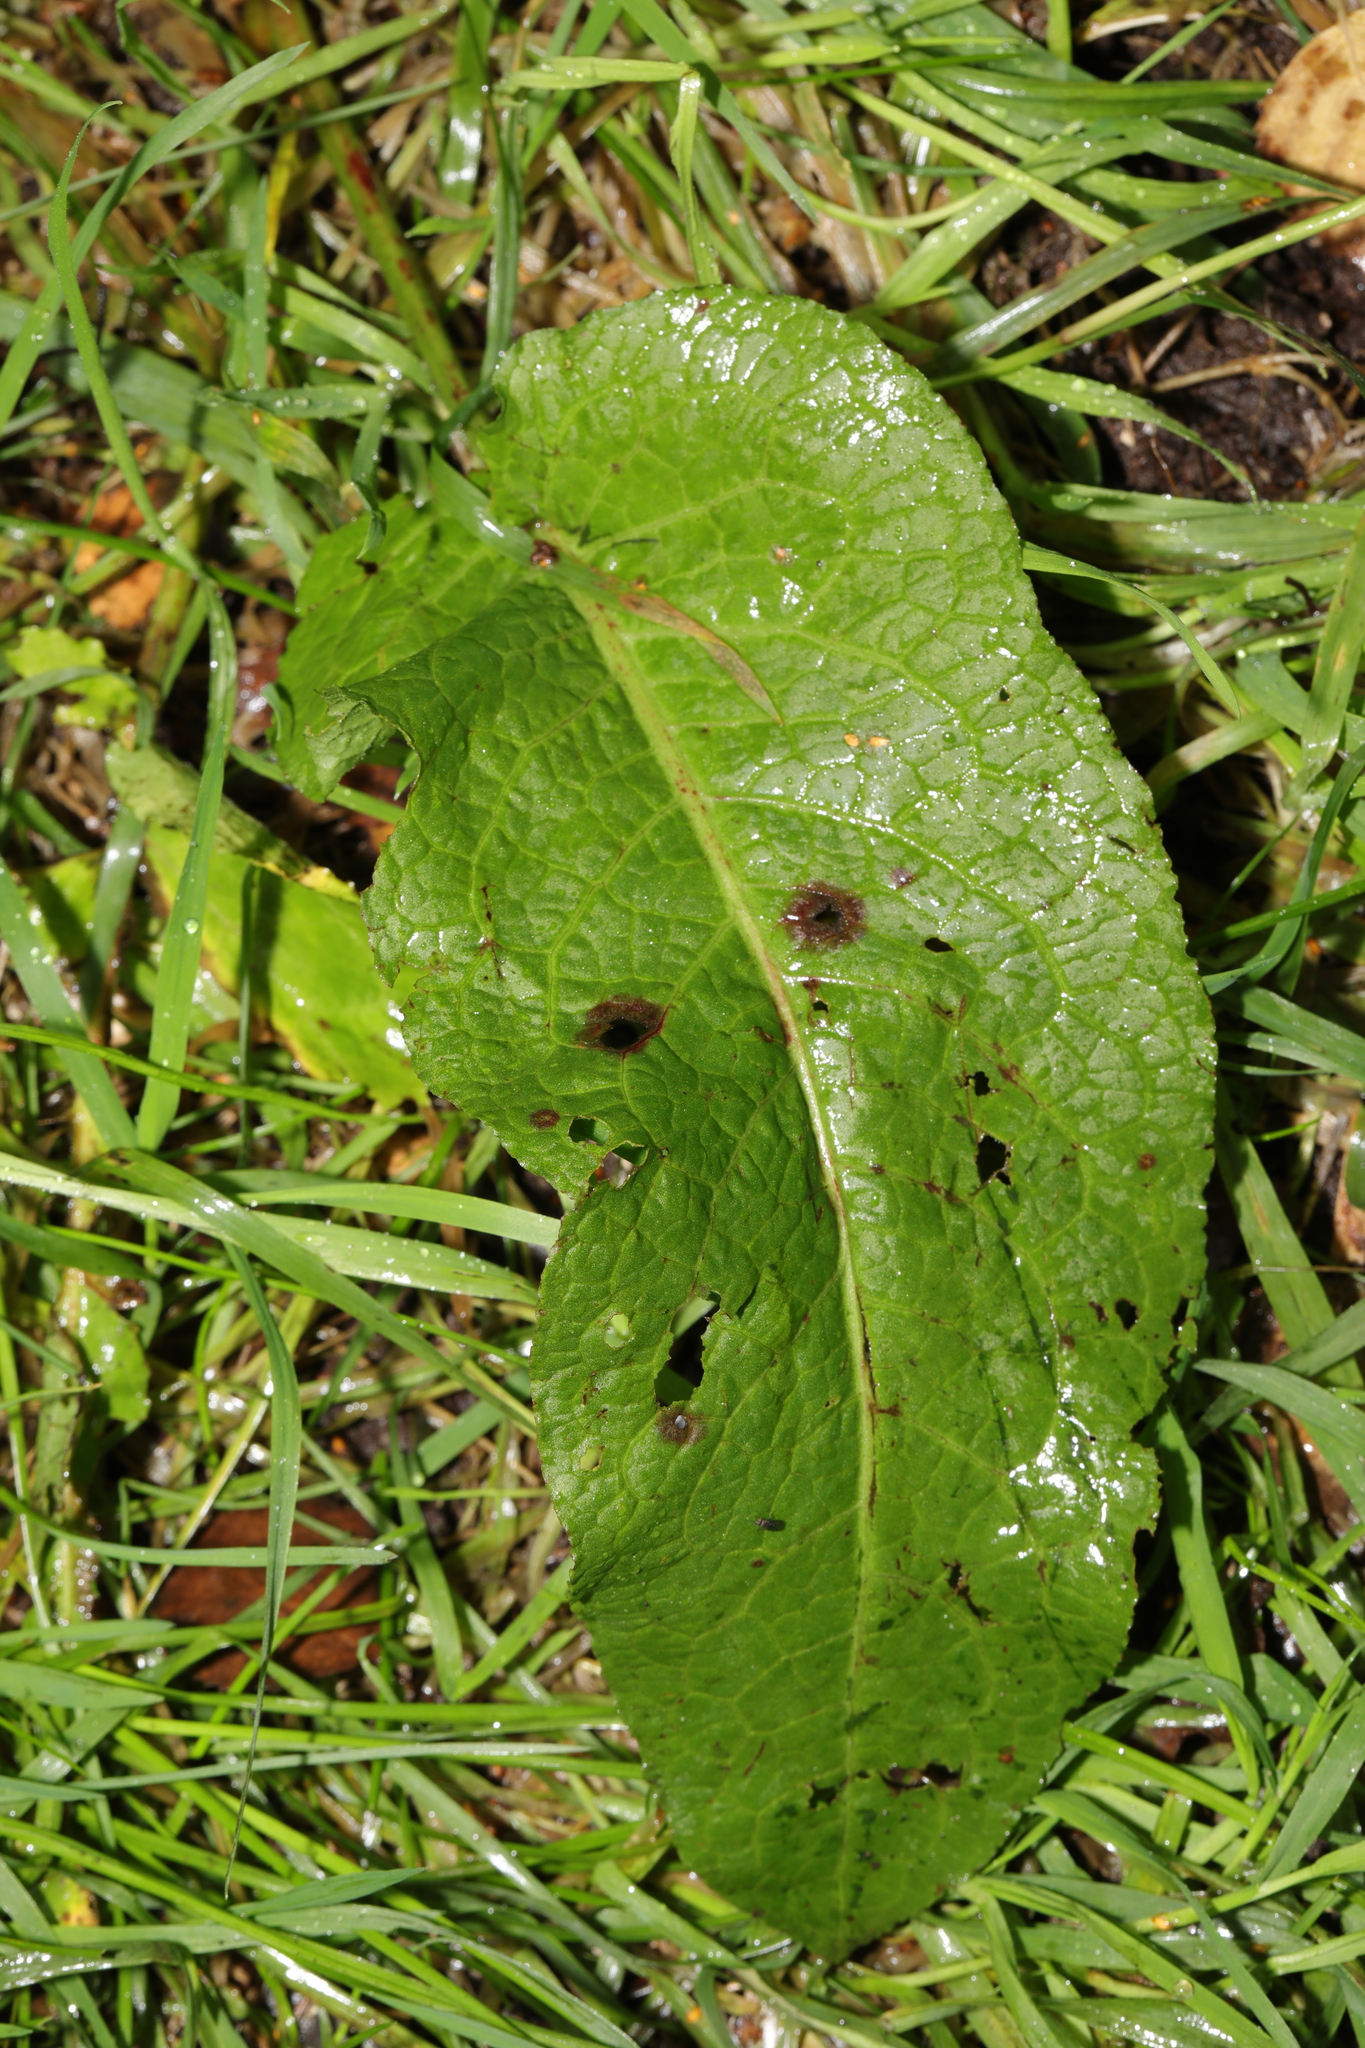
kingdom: Plantae
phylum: Tracheophyta
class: Magnoliopsida
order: Caryophyllales
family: Polygonaceae
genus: Rumex
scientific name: Rumex obtusifolius
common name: Bitter dock
